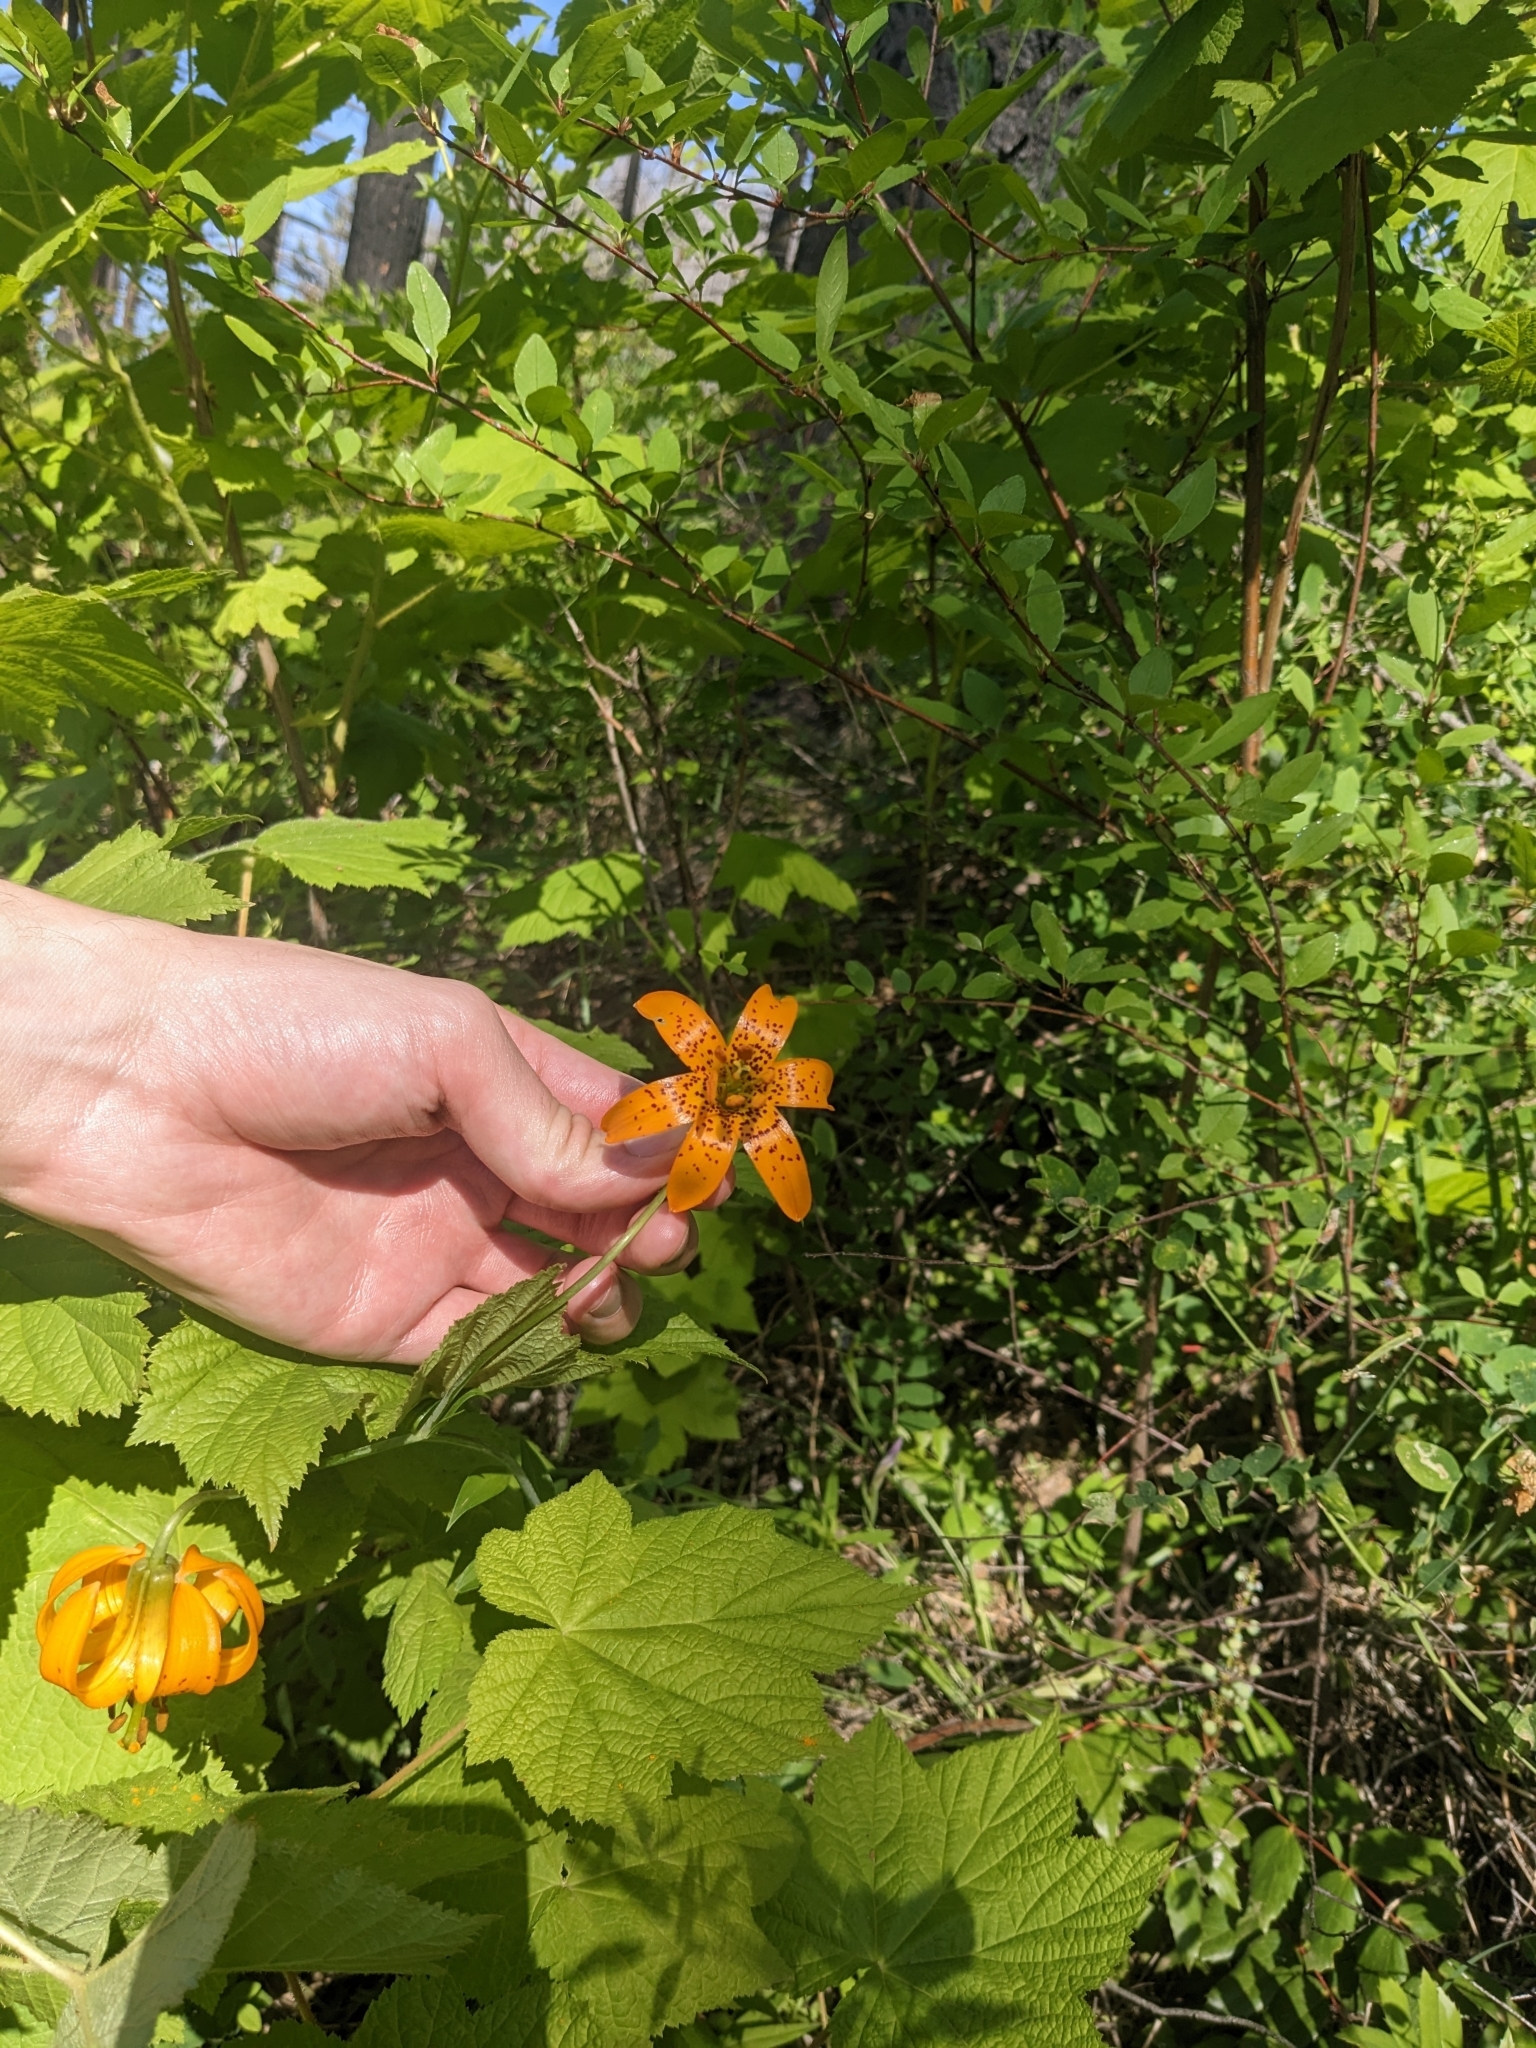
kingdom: Plantae
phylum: Tracheophyta
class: Liliopsida
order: Liliales
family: Liliaceae
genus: Lilium
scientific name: Lilium columbianum
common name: Columbia lily
